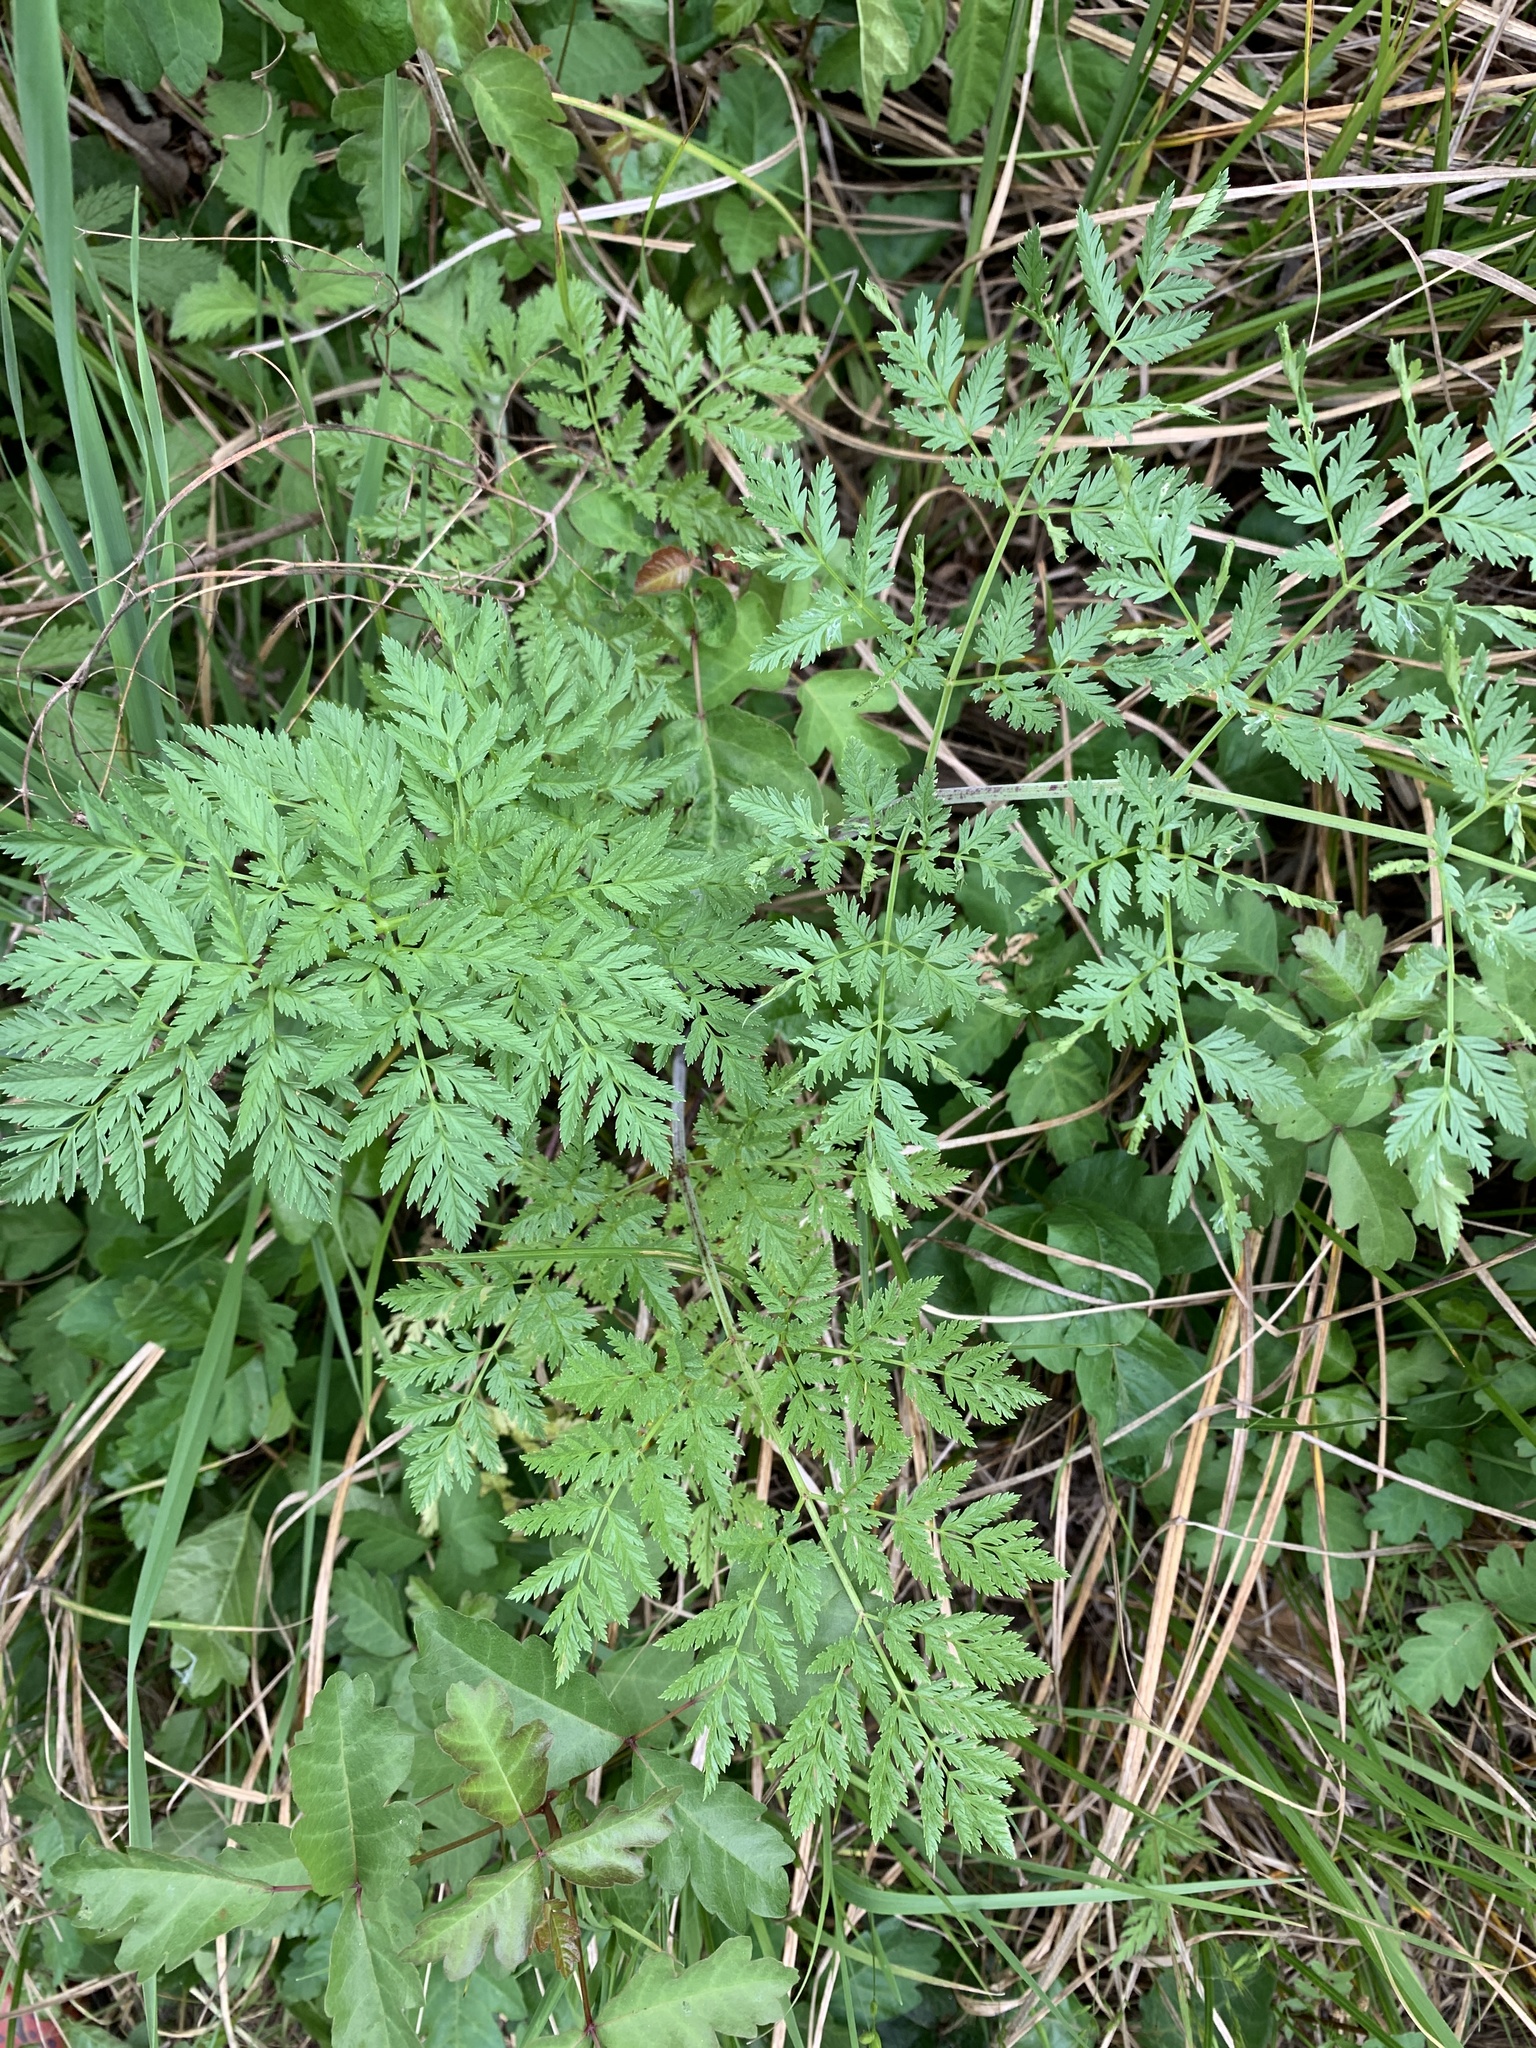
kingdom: Plantae
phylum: Tracheophyta
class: Magnoliopsida
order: Apiales
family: Apiaceae
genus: Conium
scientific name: Conium maculatum
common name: Hemlock
